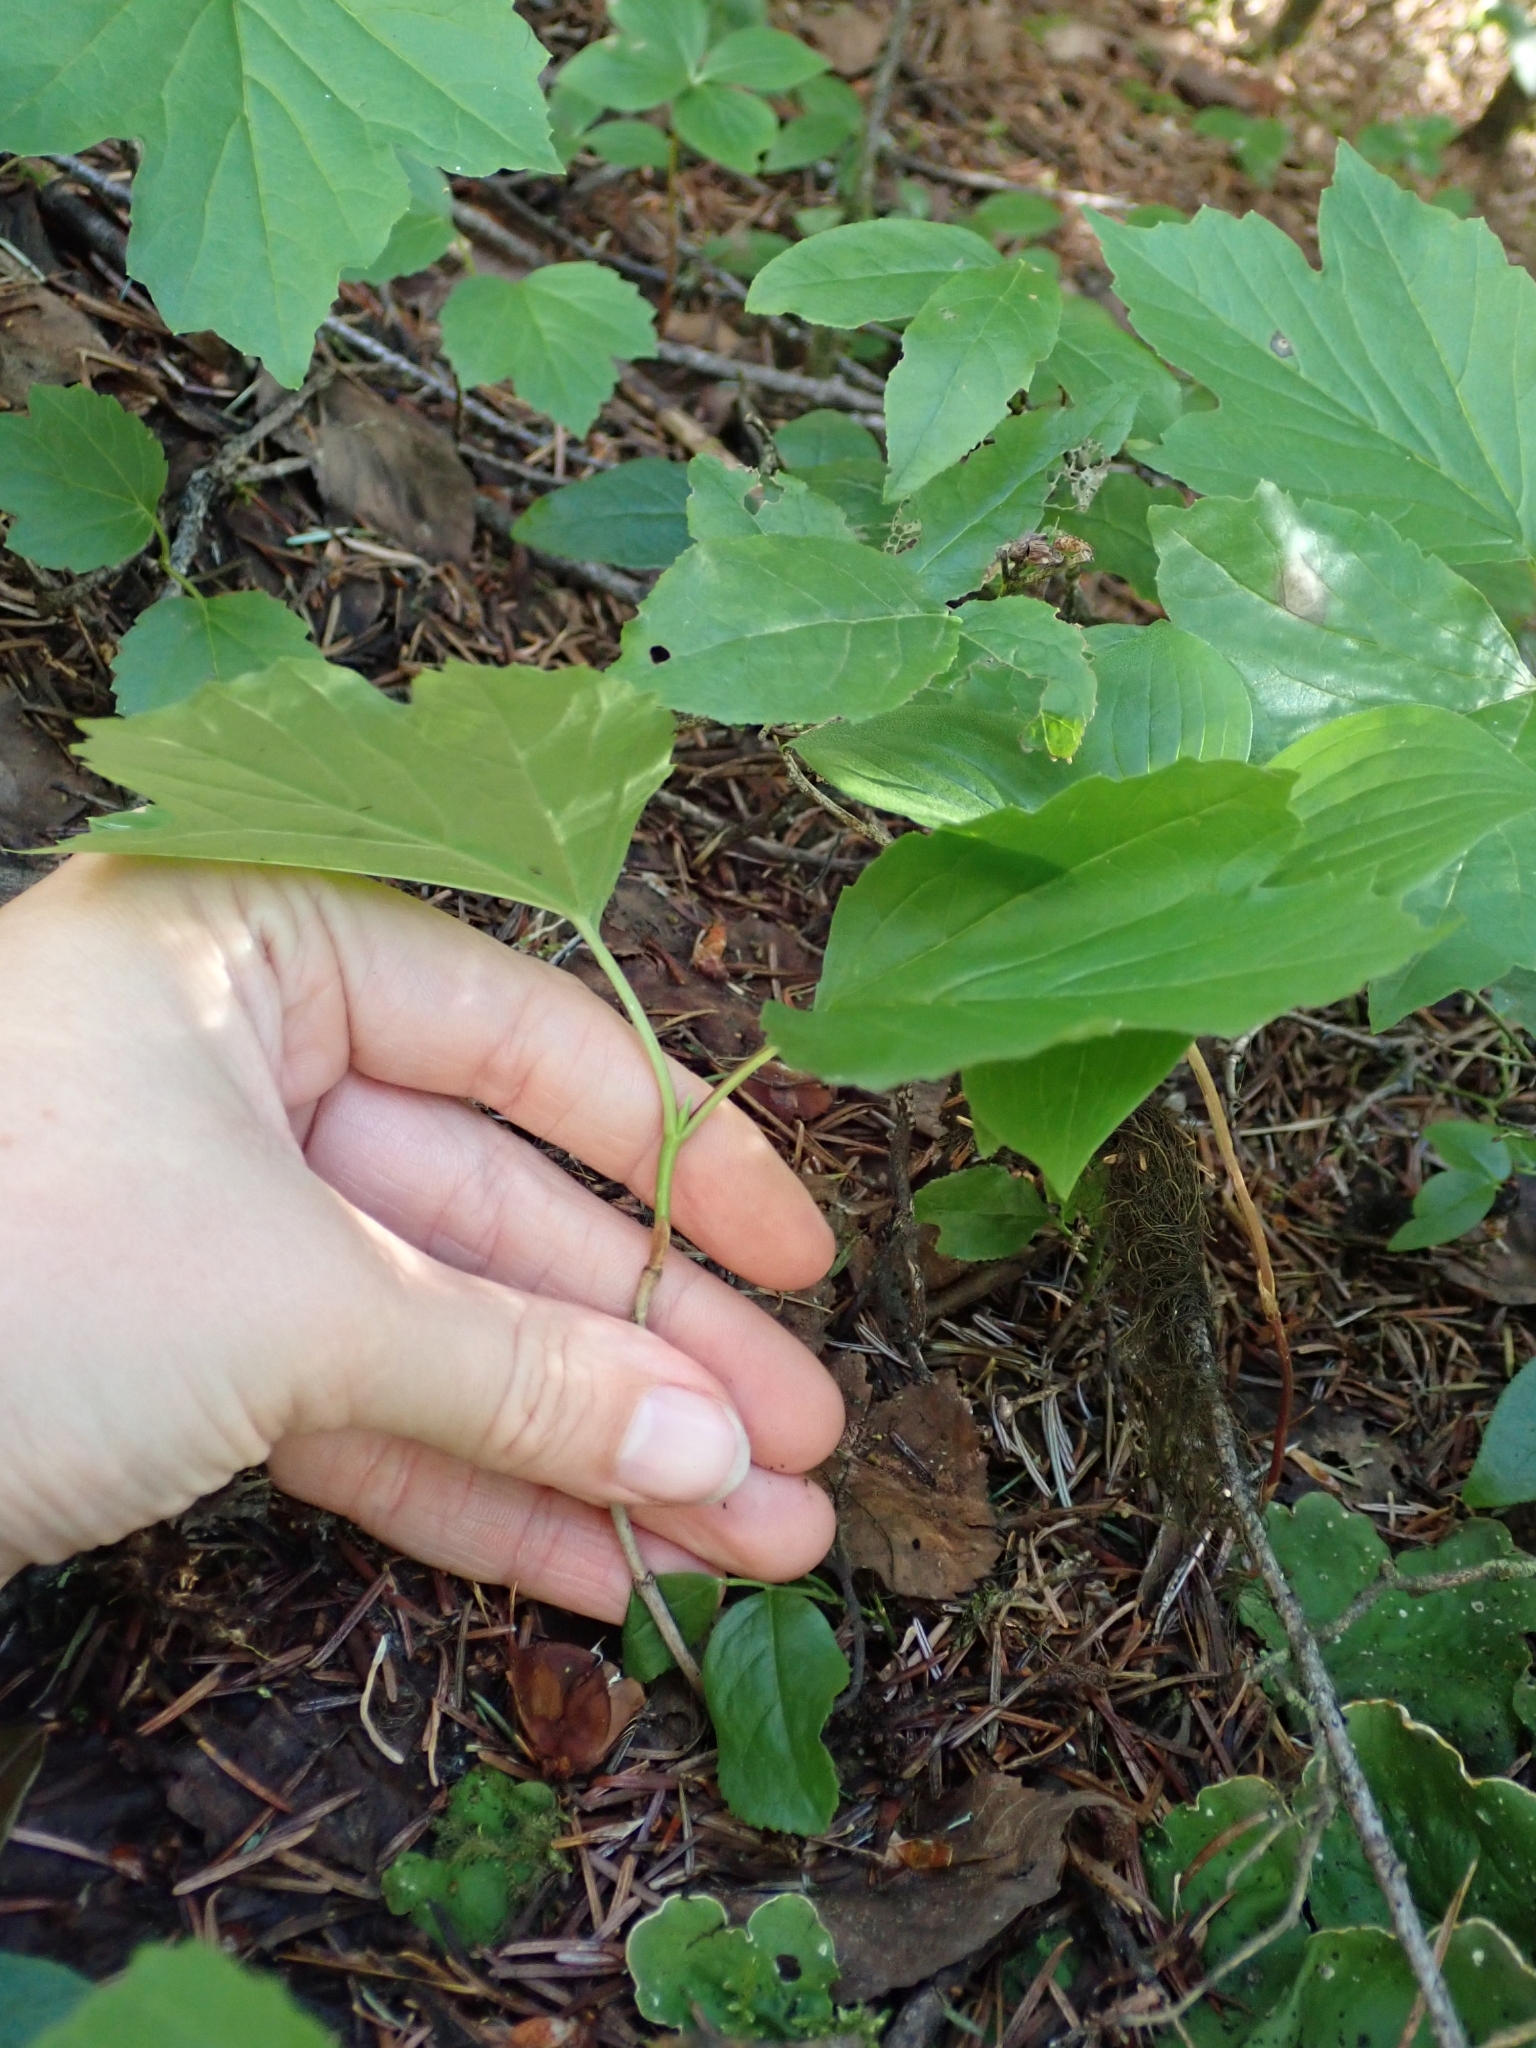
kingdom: Plantae
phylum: Tracheophyta
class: Magnoliopsida
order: Dipsacales
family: Viburnaceae
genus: Viburnum
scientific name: Viburnum edule
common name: Mooseberry
